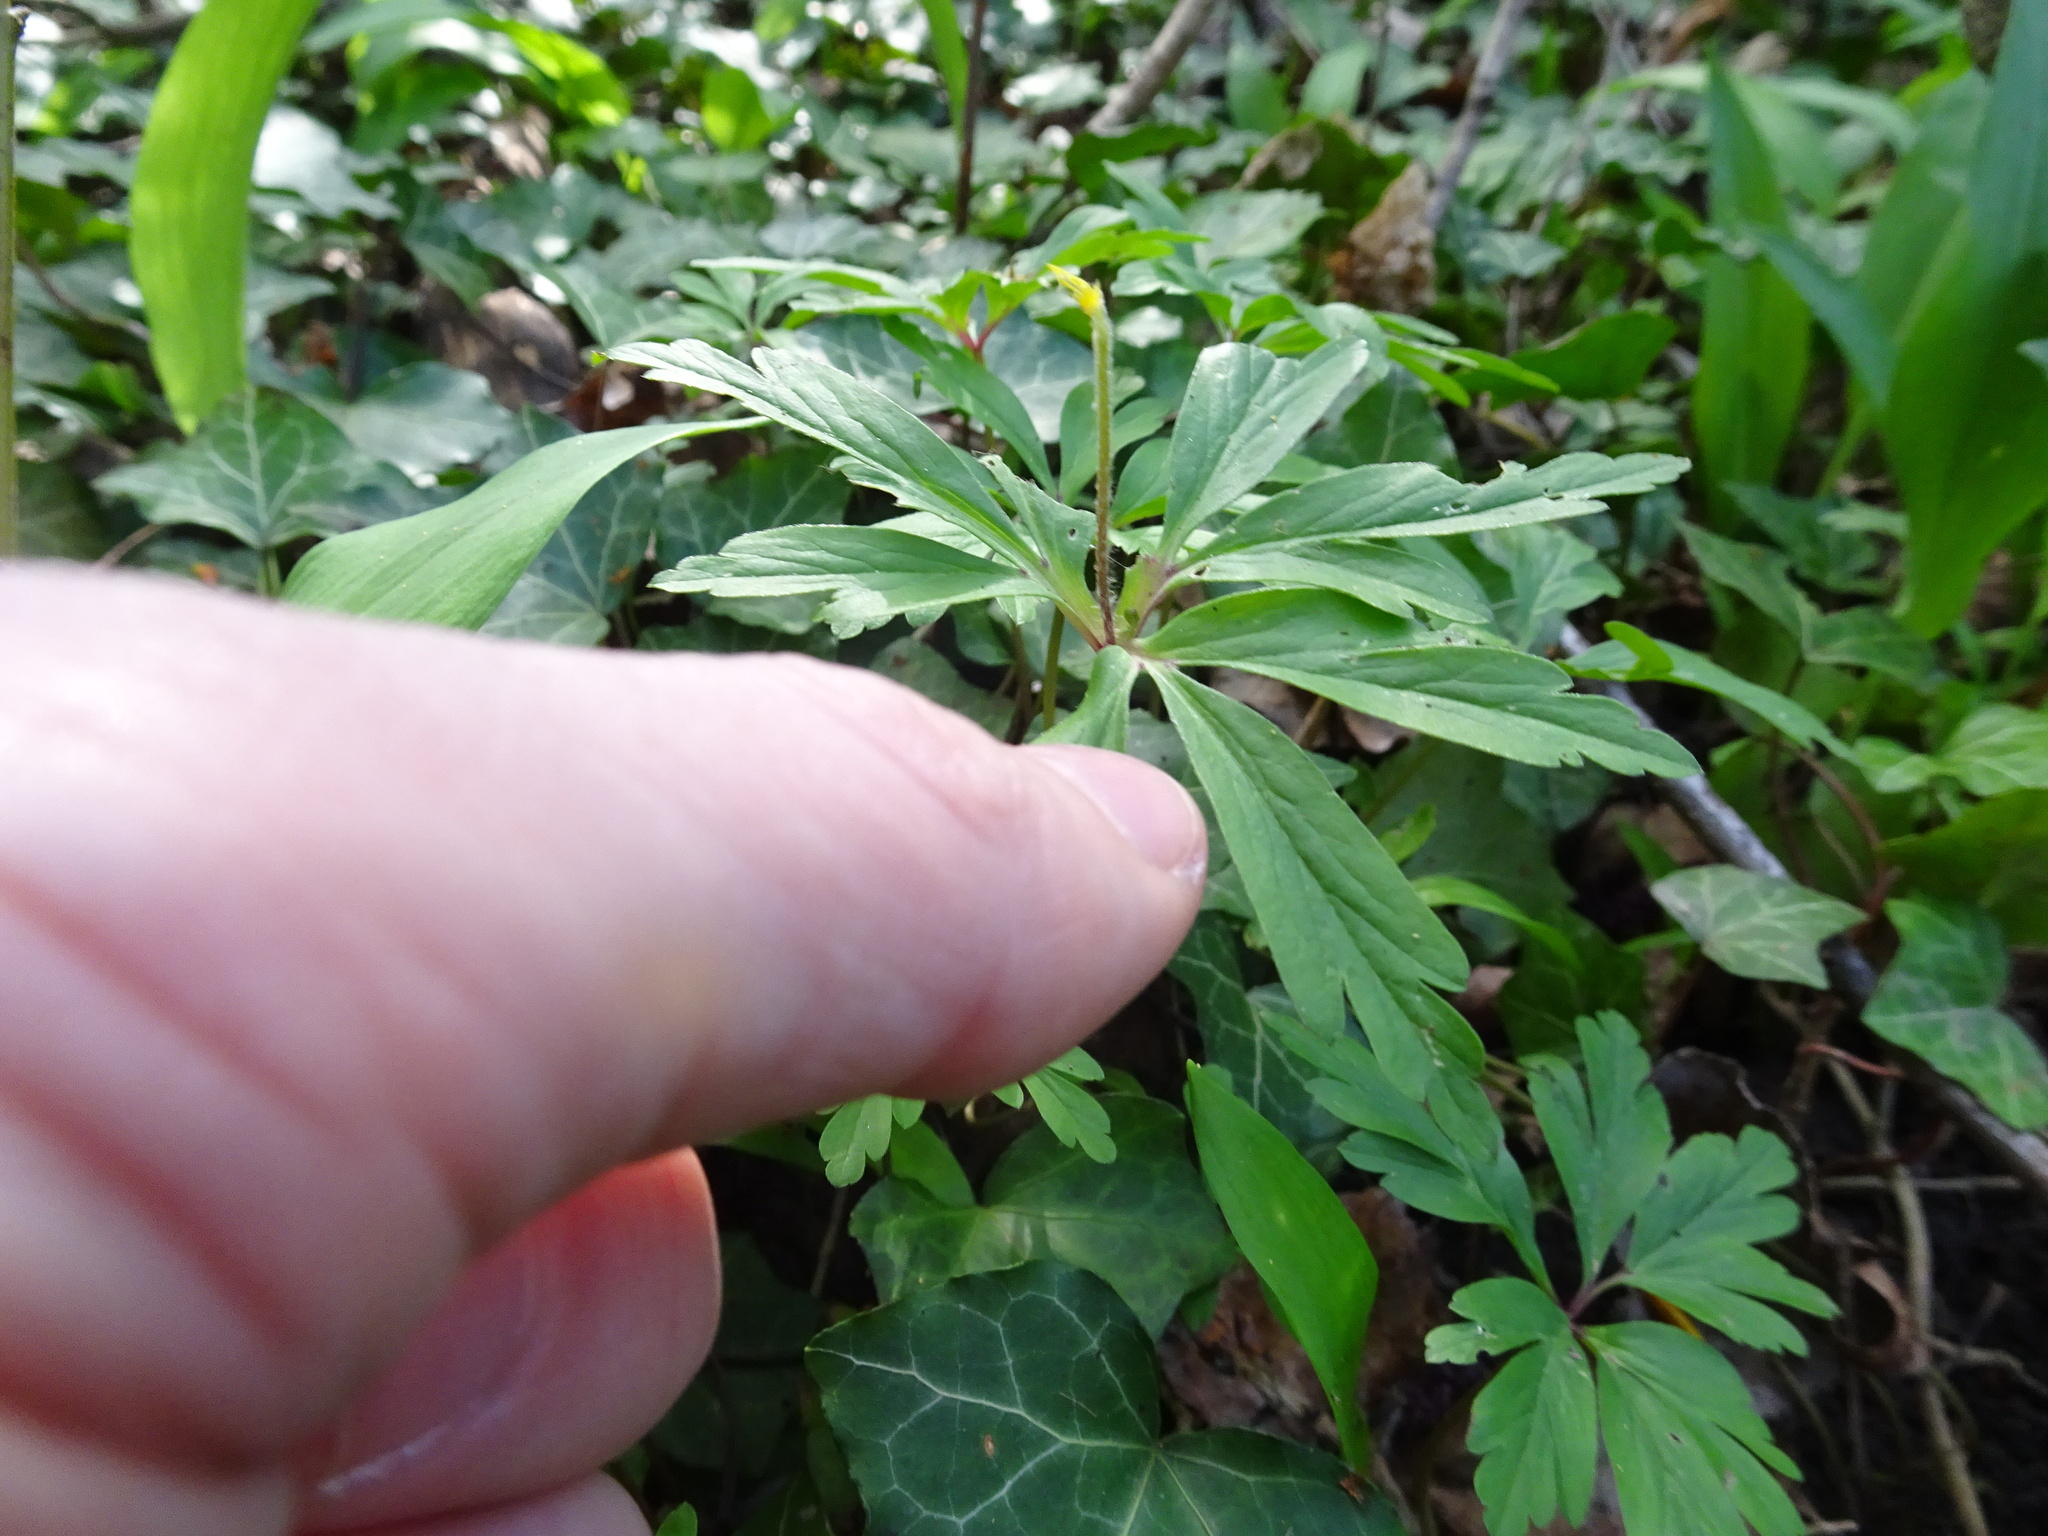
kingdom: Plantae
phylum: Tracheophyta
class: Magnoliopsida
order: Ranunculales
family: Ranunculaceae
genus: Anemone
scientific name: Anemone ranunculoides
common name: Yellow anemone
